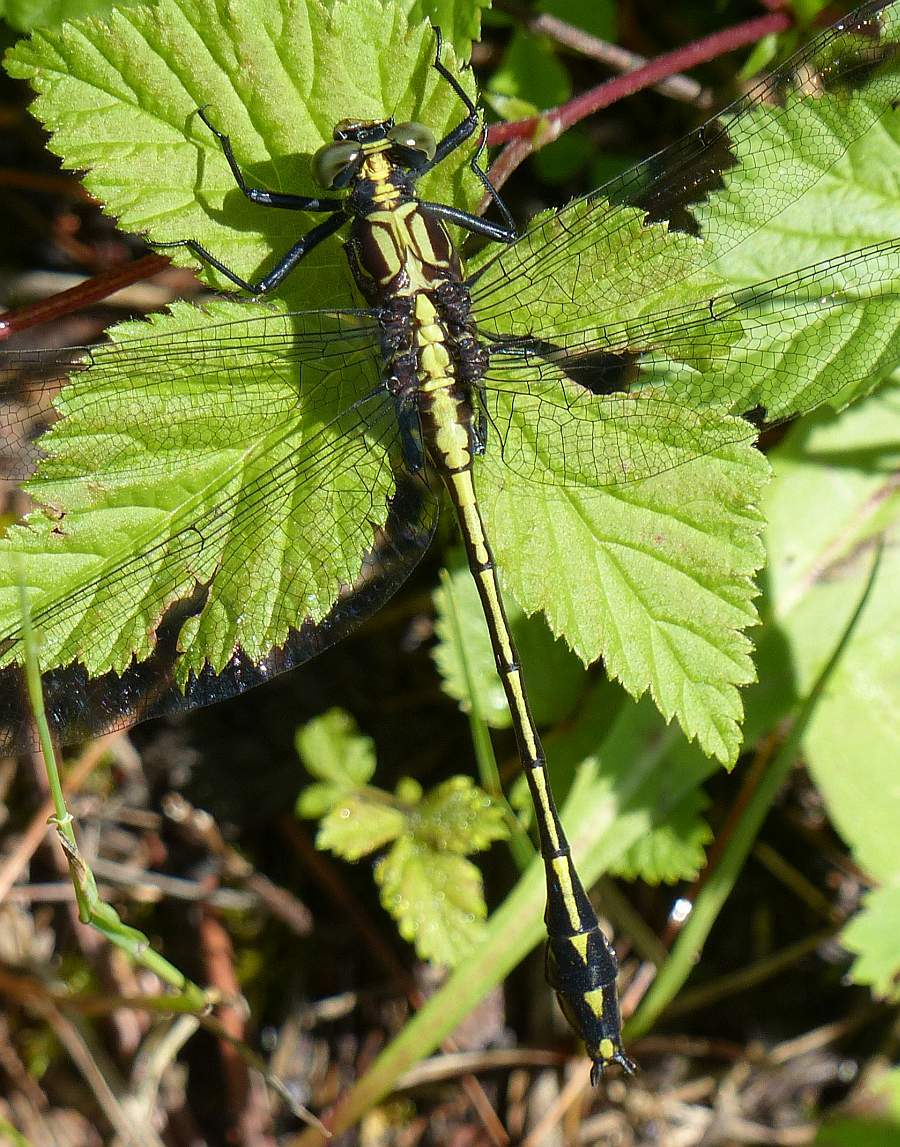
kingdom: Animalia
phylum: Arthropoda
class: Insecta
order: Odonata
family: Gomphidae
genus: Dromogomphus
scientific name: Dromogomphus spinosus
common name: Black-shouldered spinyleg
